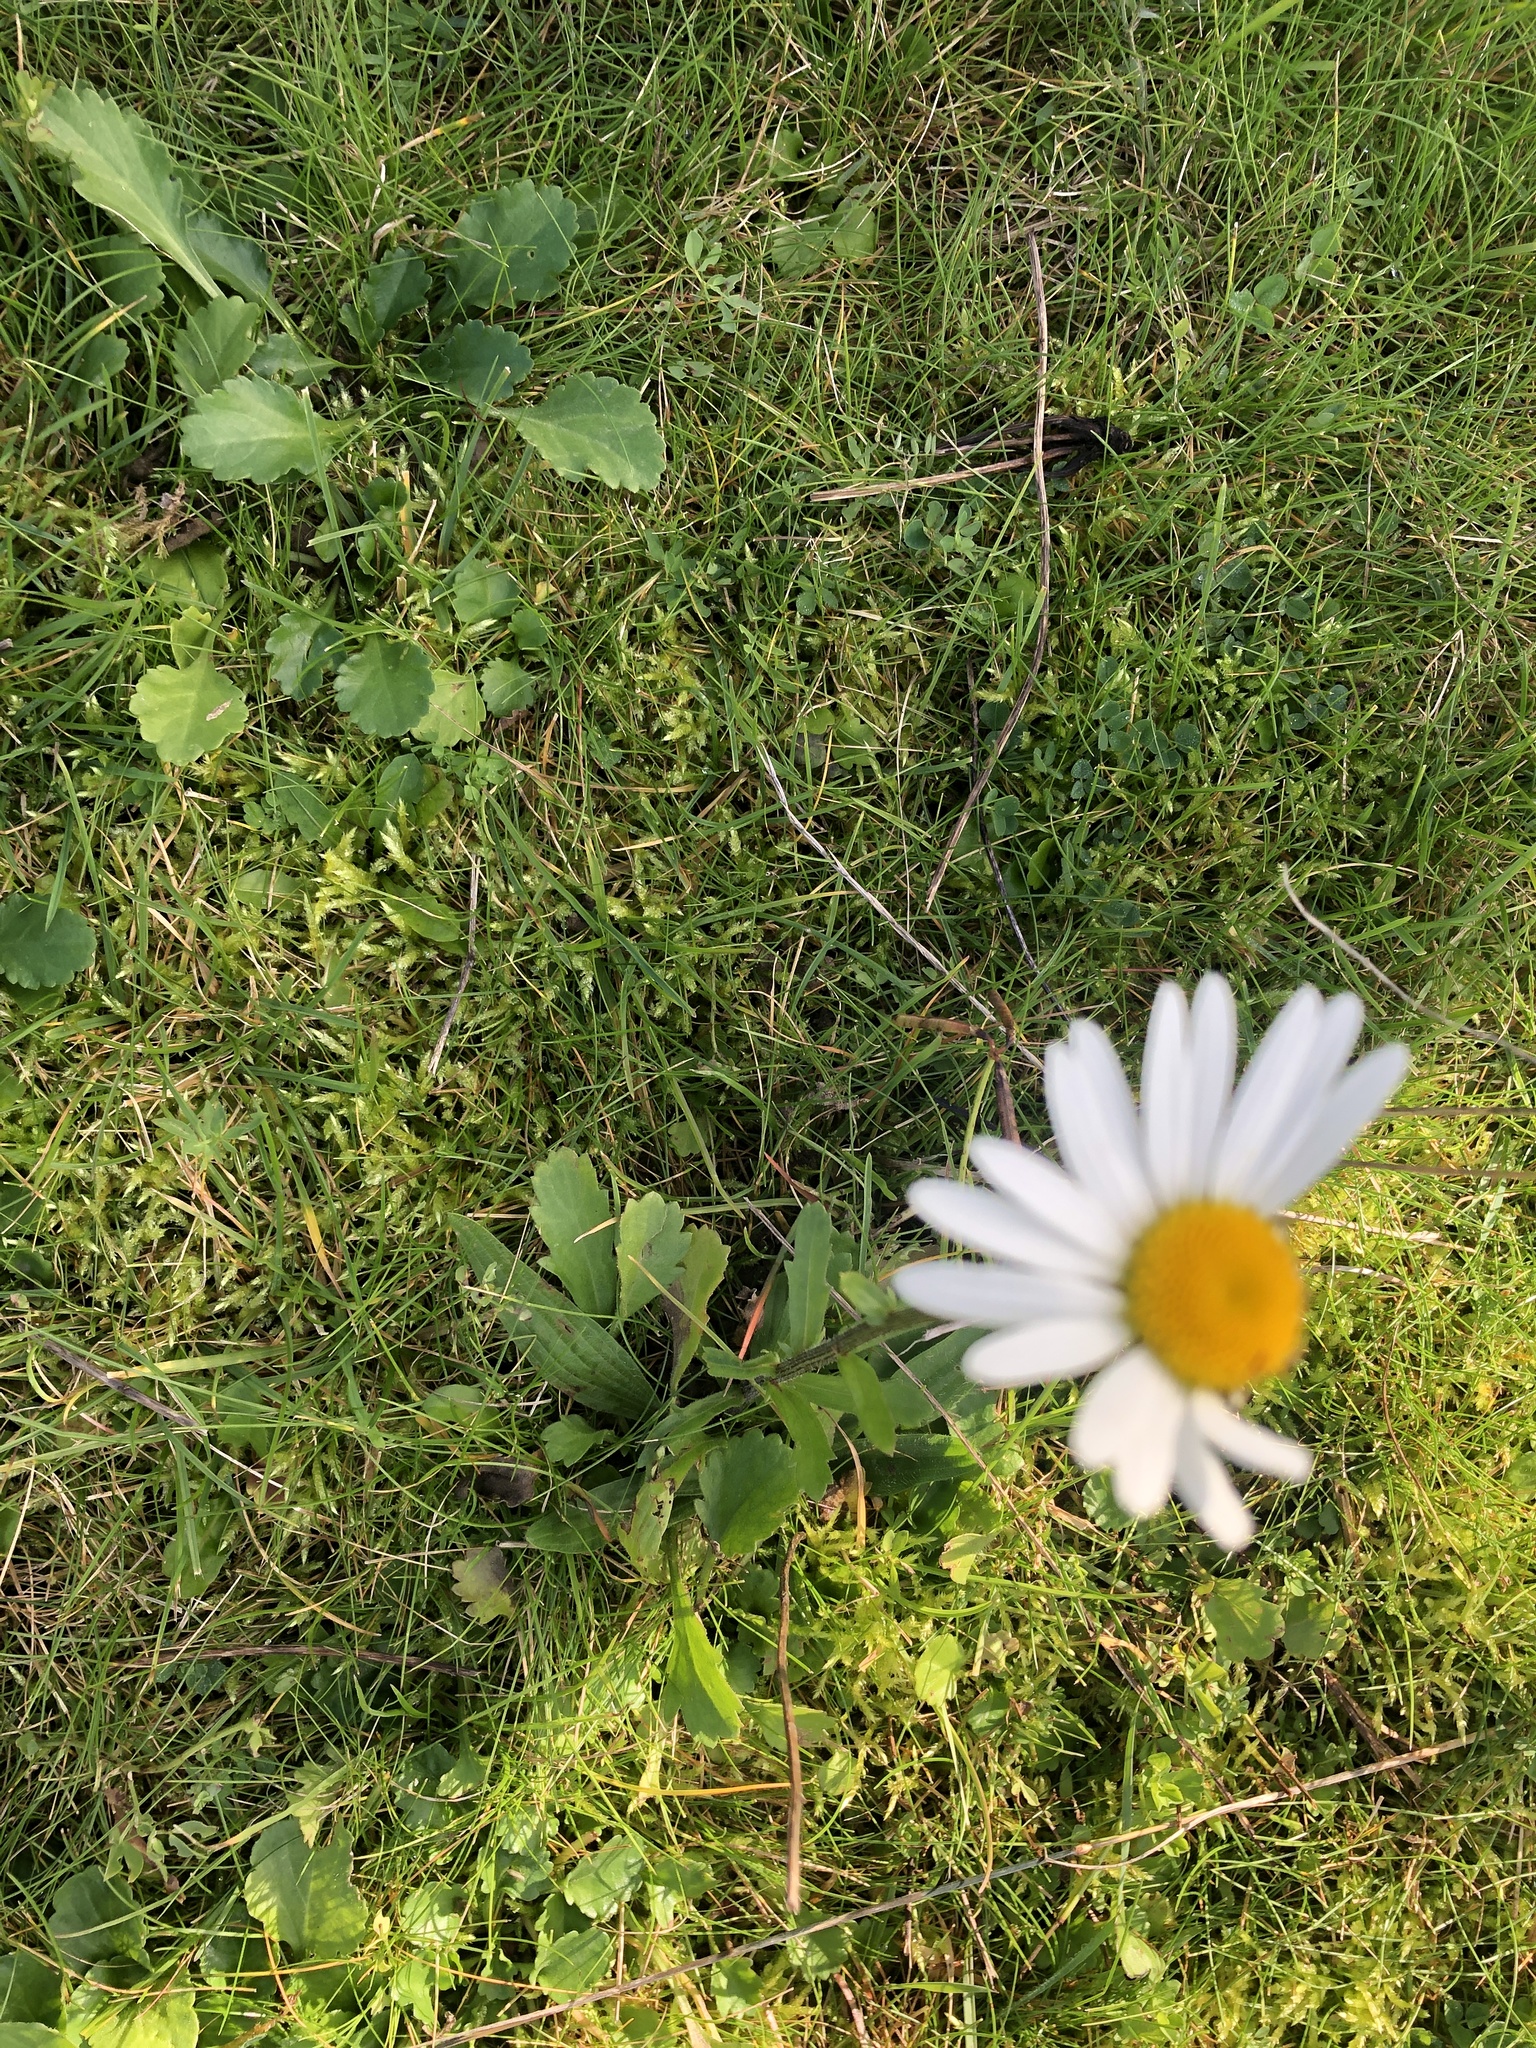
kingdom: Plantae
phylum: Tracheophyta
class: Magnoliopsida
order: Asterales
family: Asteraceae
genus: Leucanthemum
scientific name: Leucanthemum vulgare
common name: Oxeye daisy
